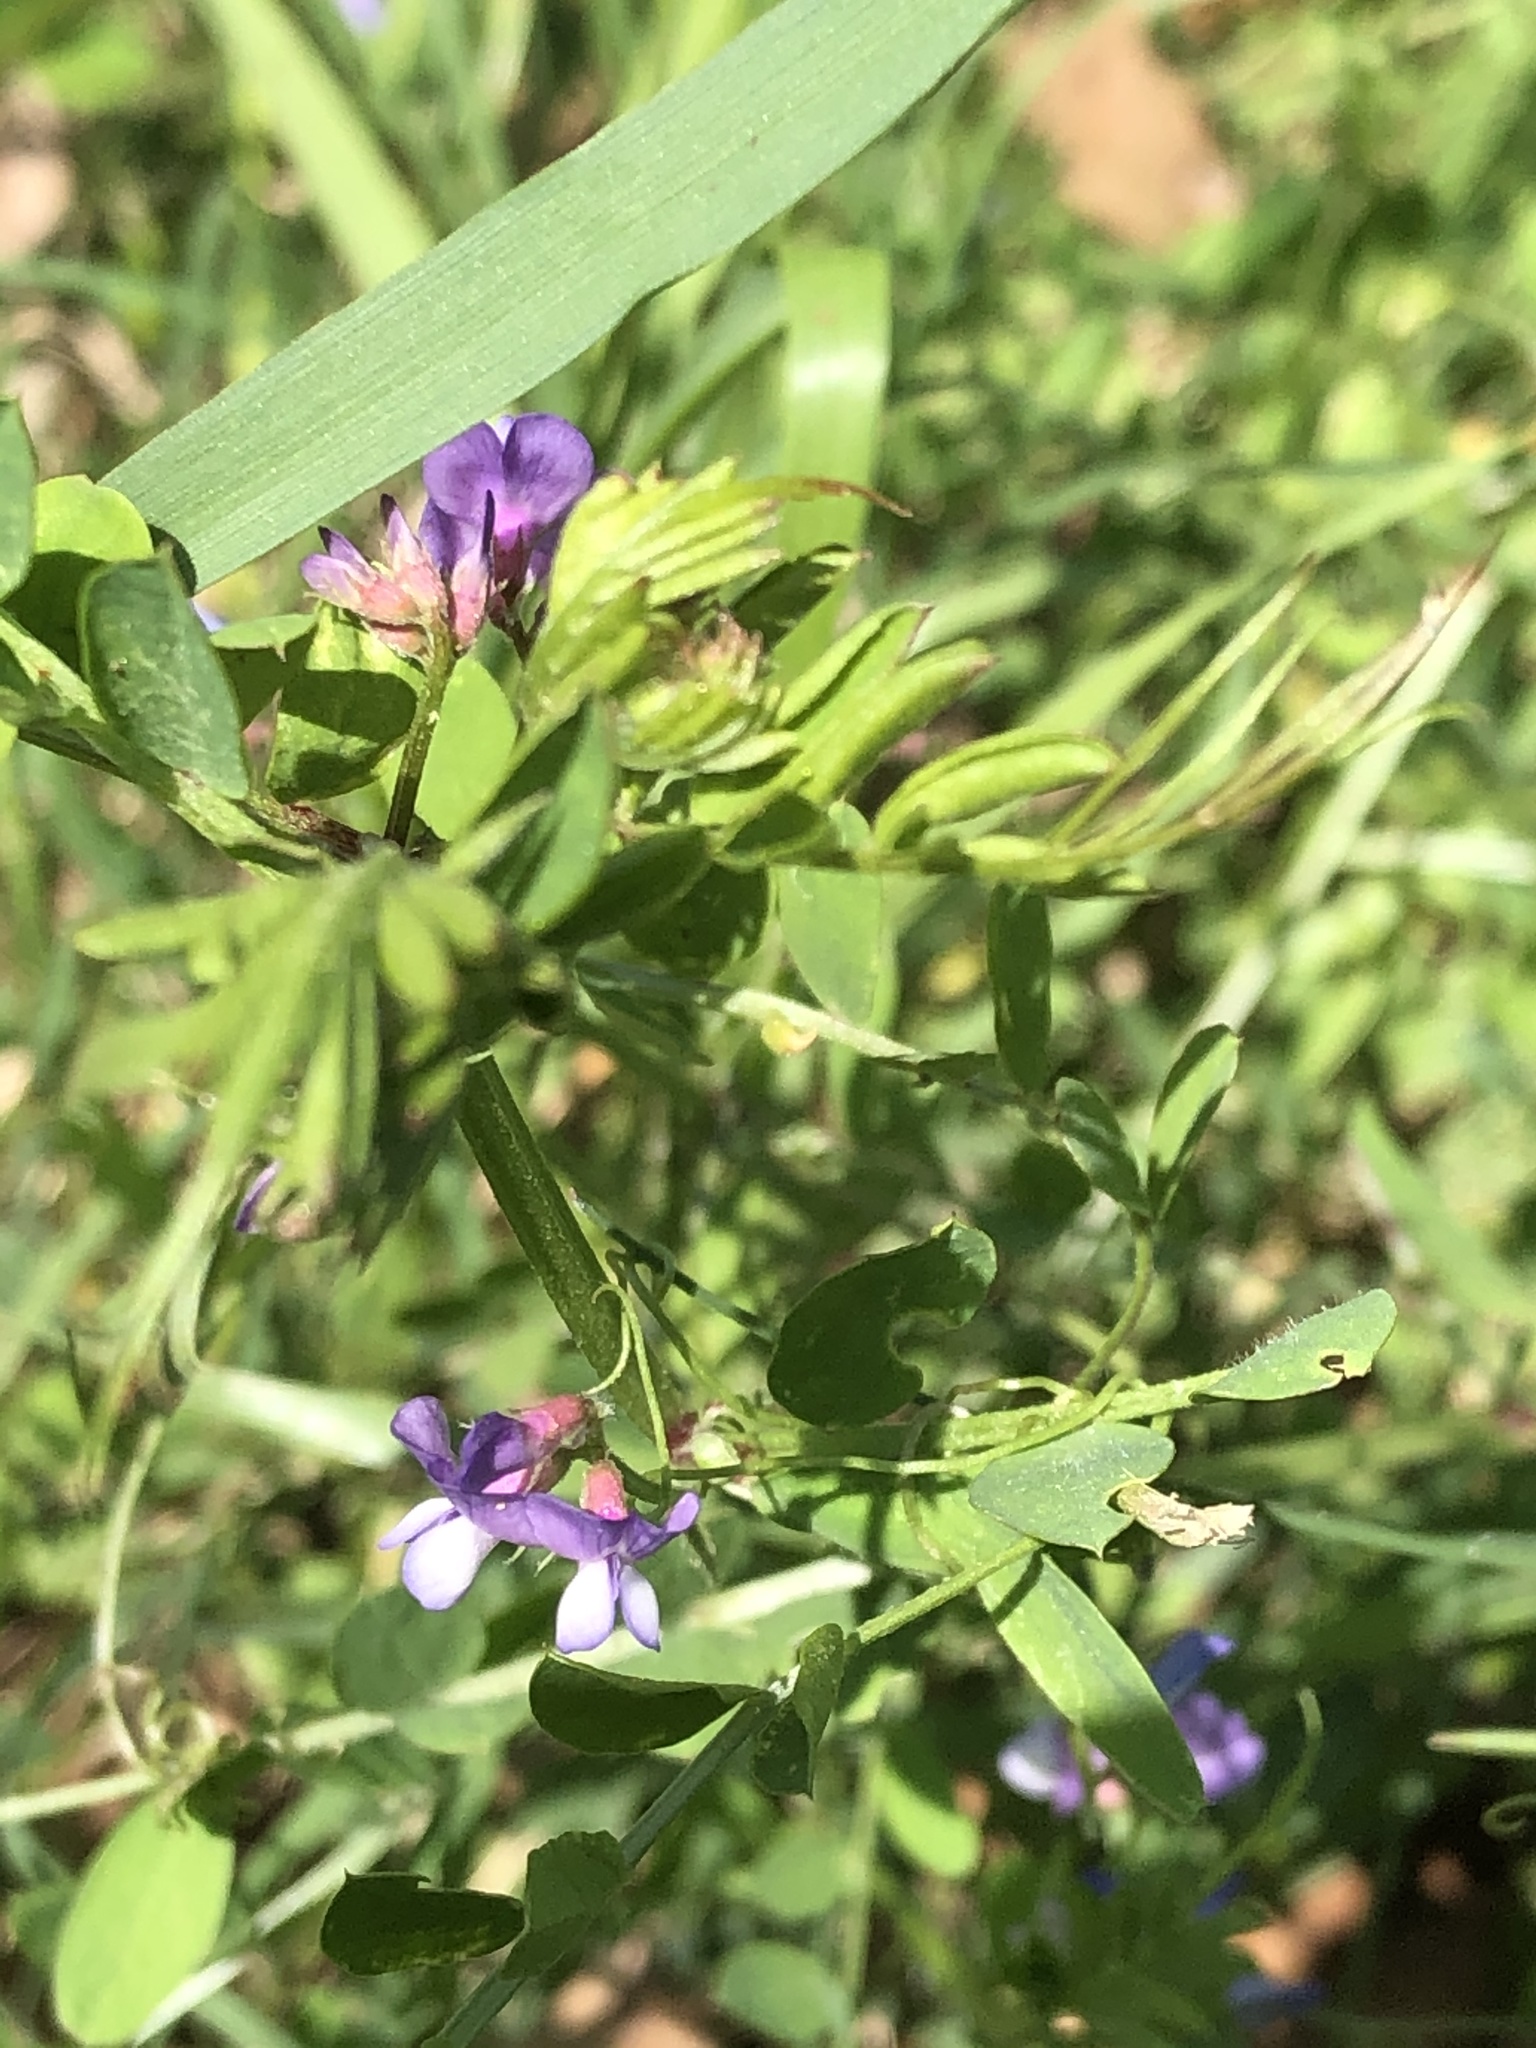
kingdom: Plantae
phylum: Tracheophyta
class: Magnoliopsida
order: Fabales
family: Fabaceae
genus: Vicia
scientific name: Vicia ludoviciana
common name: Louisiana vetch
